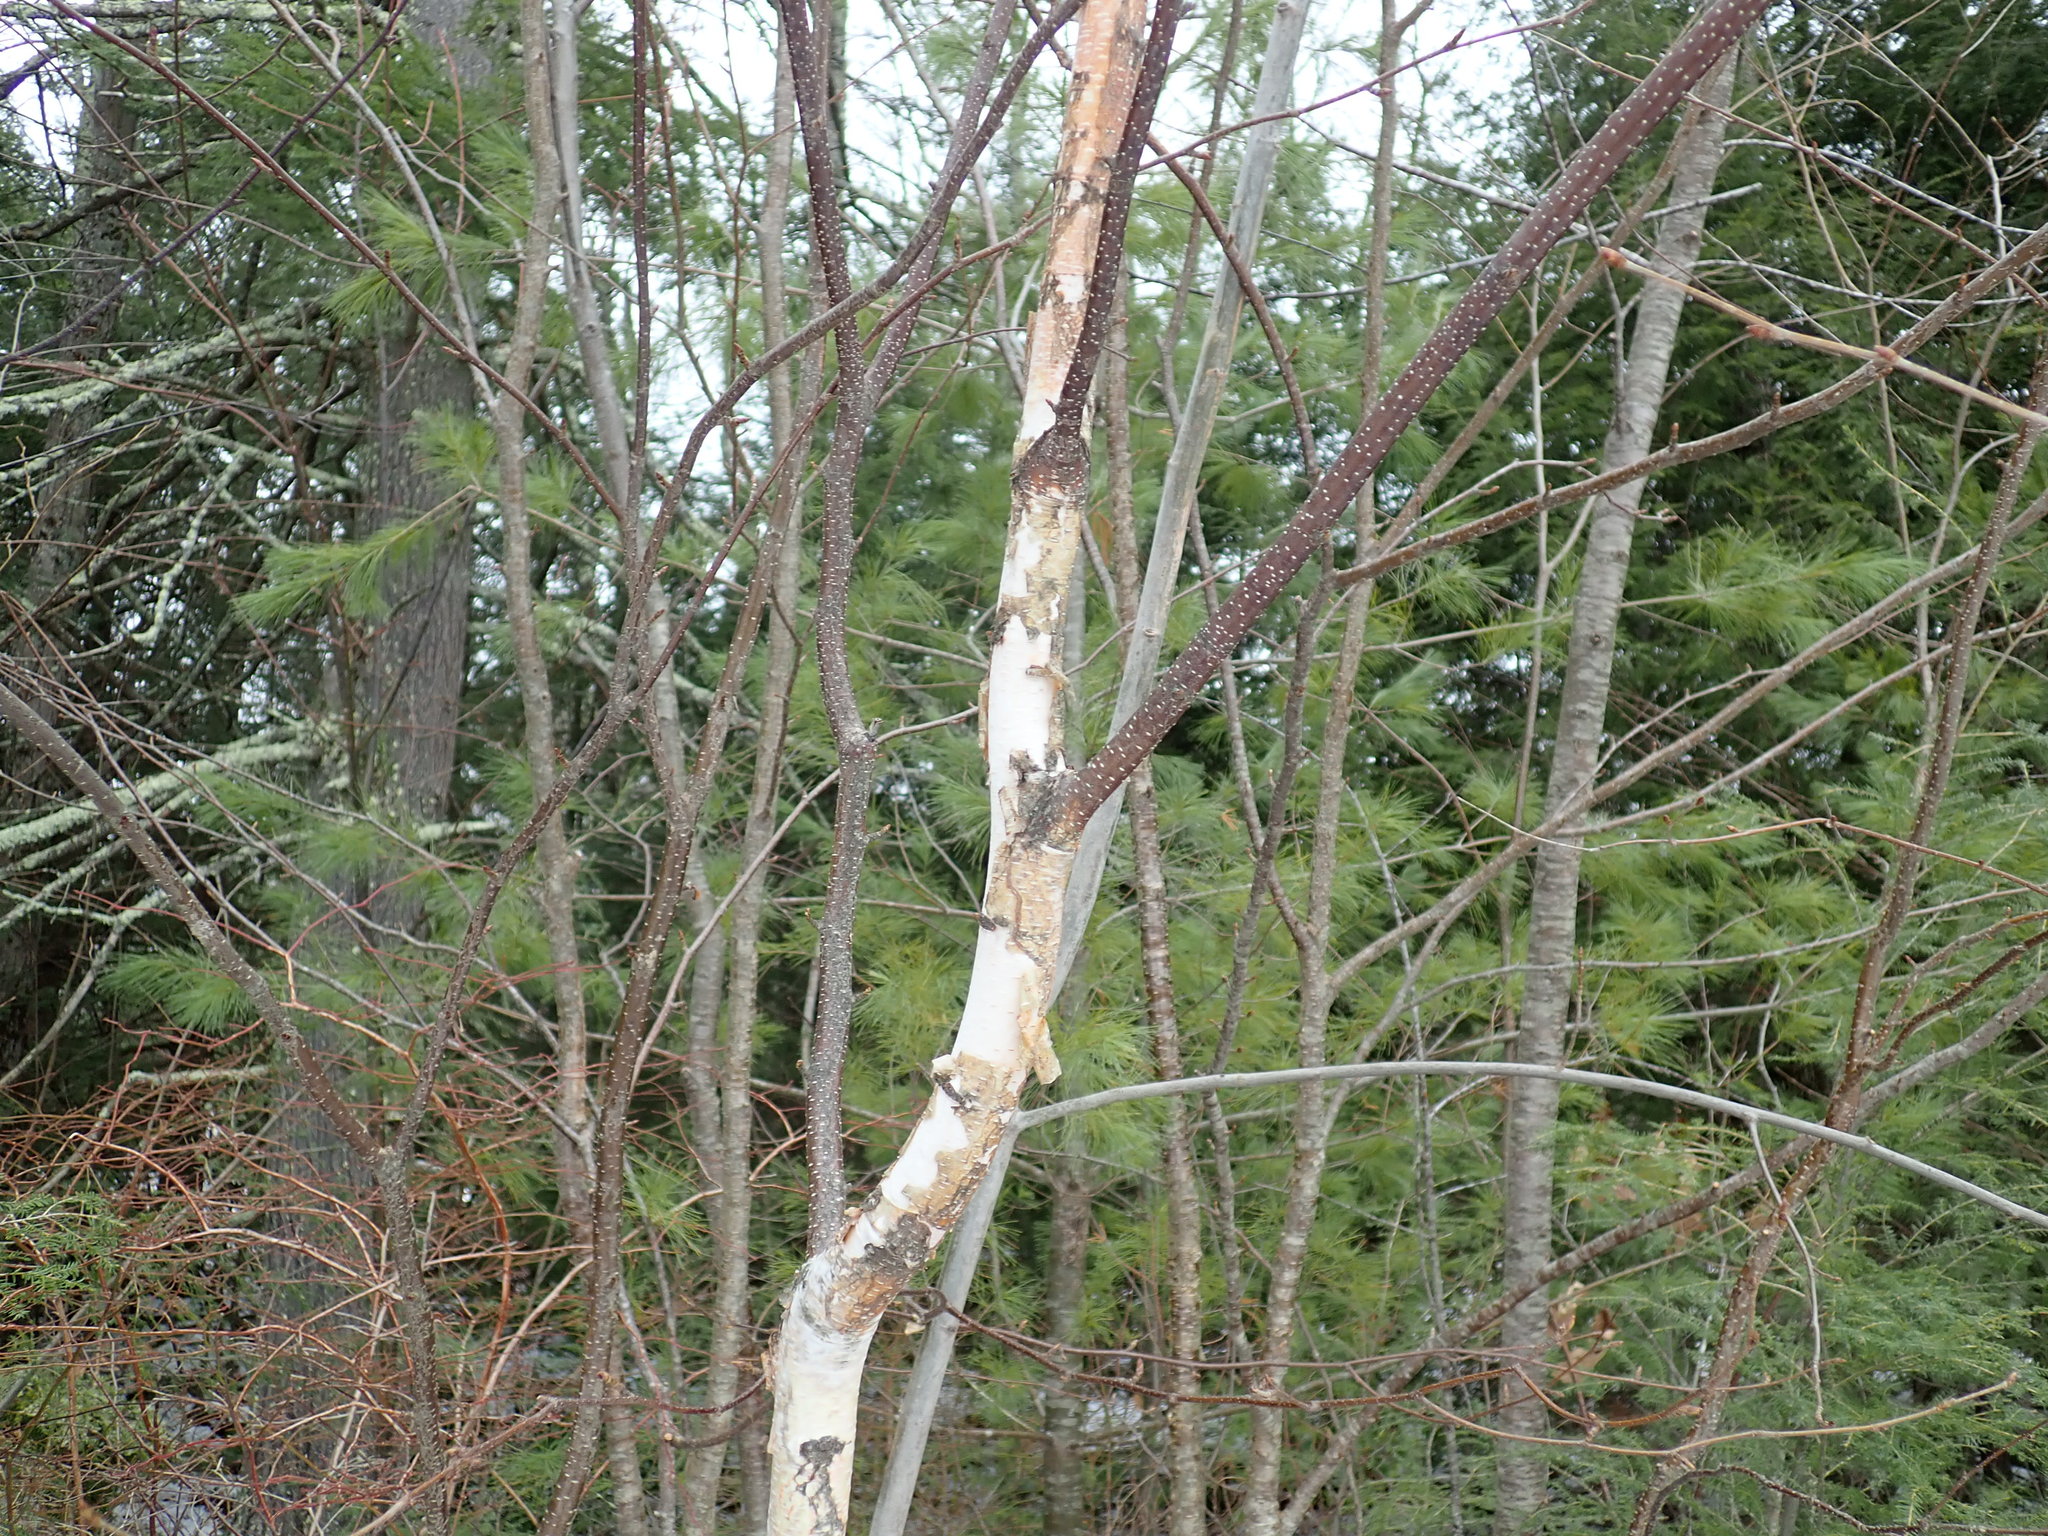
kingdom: Plantae
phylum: Tracheophyta
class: Magnoliopsida
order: Fagales
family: Betulaceae
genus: Betula
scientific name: Betula populifolia
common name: Fire birch
